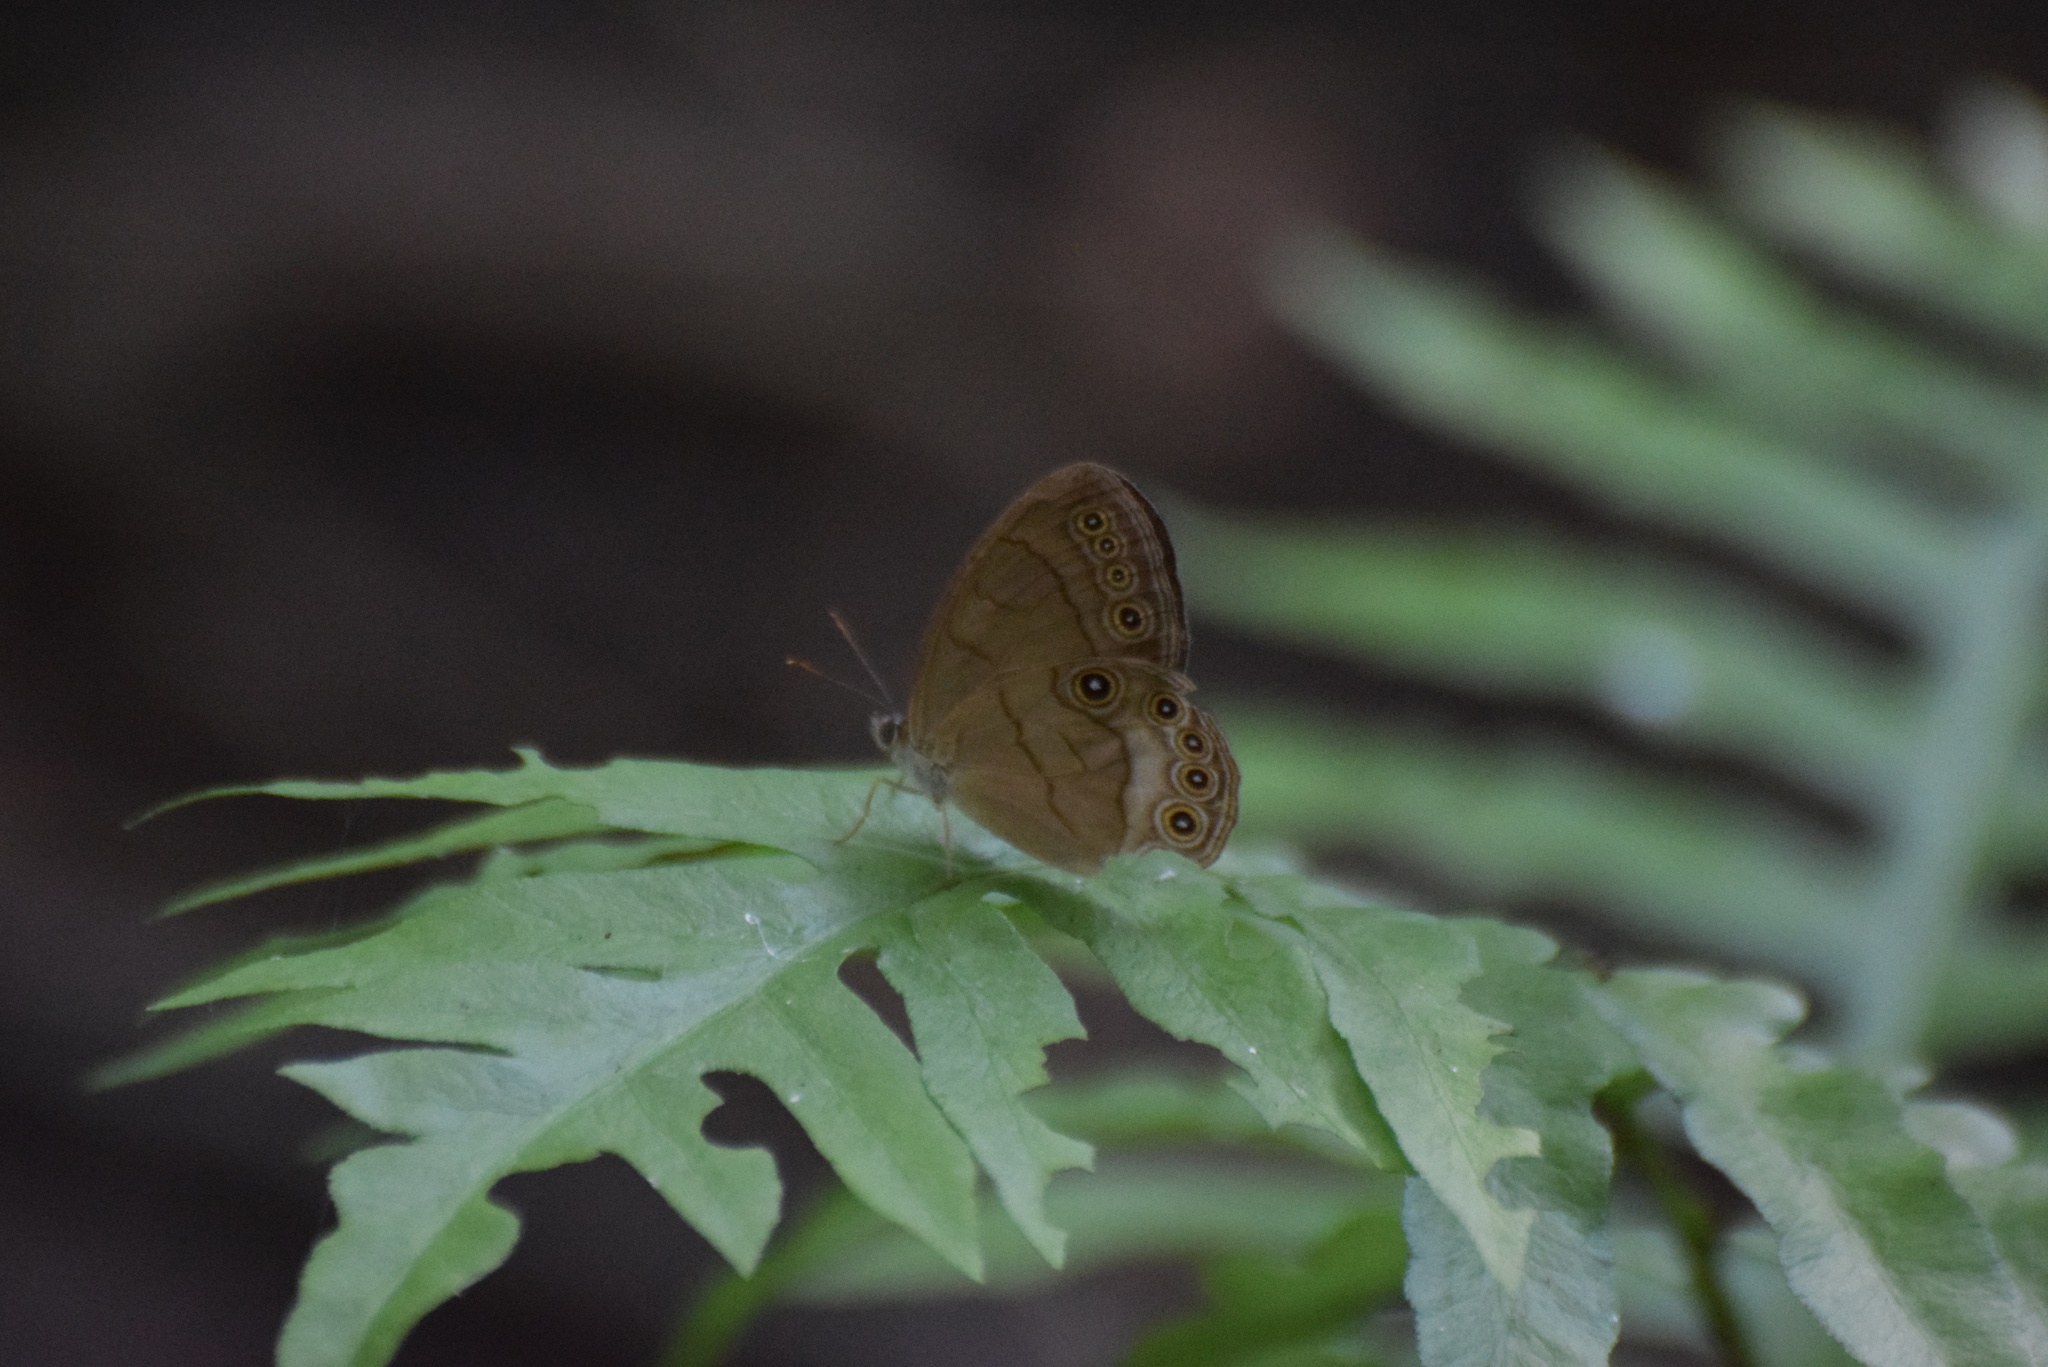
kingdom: Animalia
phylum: Arthropoda
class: Insecta
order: Lepidoptera
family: Nymphalidae
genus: Lethe
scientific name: Lethe eurydice
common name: Eyed brown
